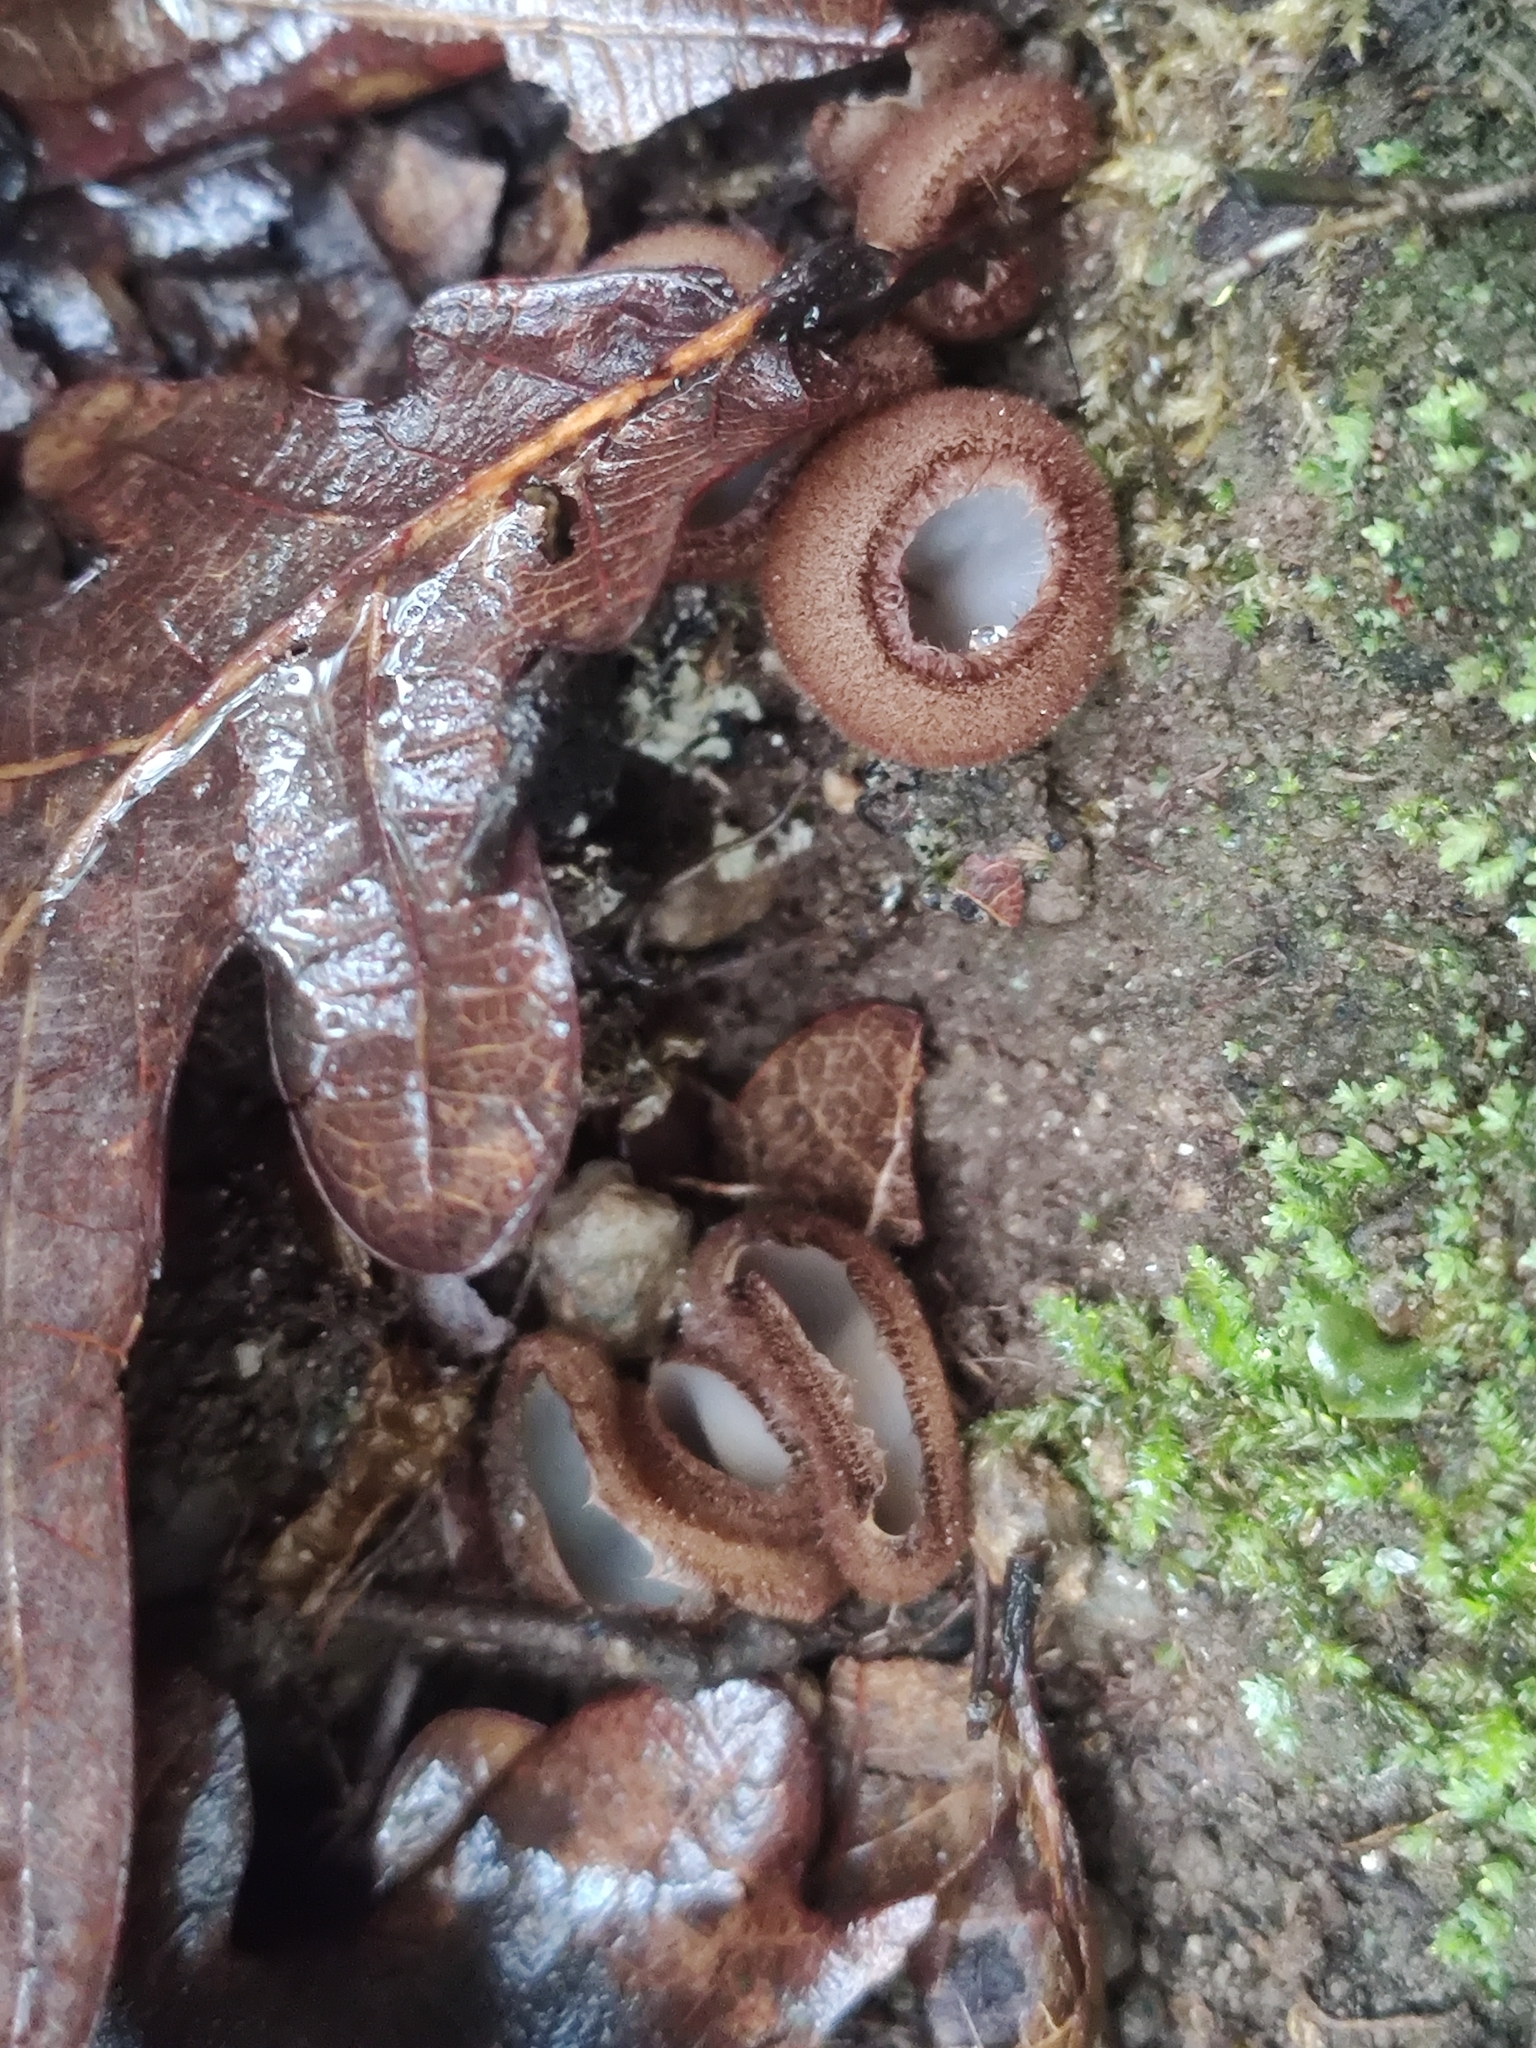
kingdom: Fungi
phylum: Ascomycota
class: Pezizomycetes
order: Pezizales
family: Pyronemataceae
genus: Humaria
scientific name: Humaria hemisphaerica
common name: Glazed cup
